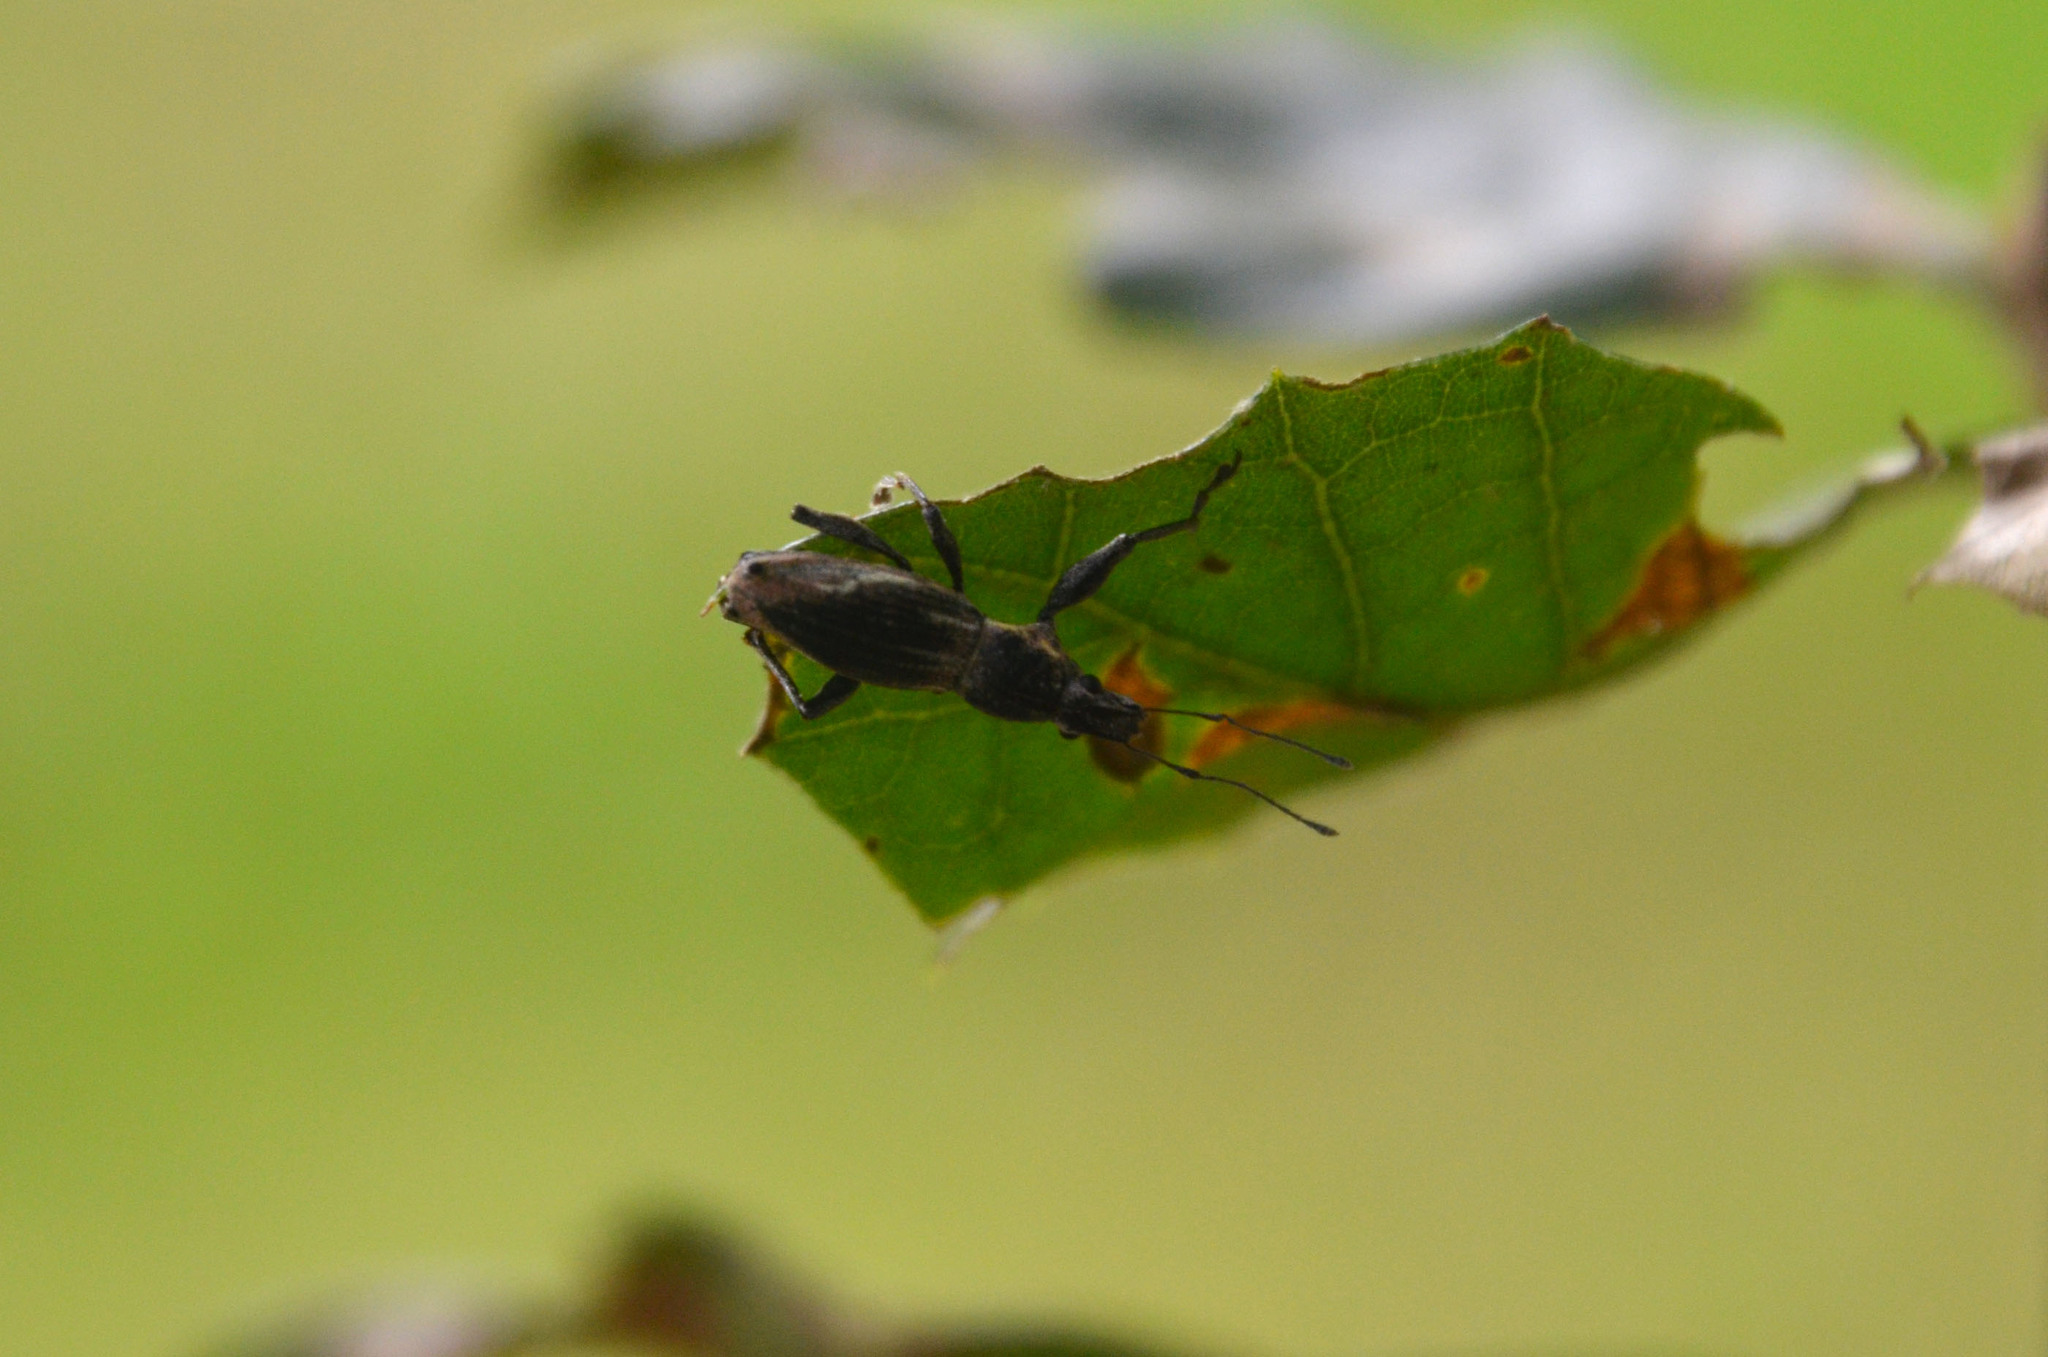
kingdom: Animalia
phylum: Arthropoda
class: Insecta
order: Coleoptera
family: Curculionidae
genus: Naupactus
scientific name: Naupactus xanthographus
